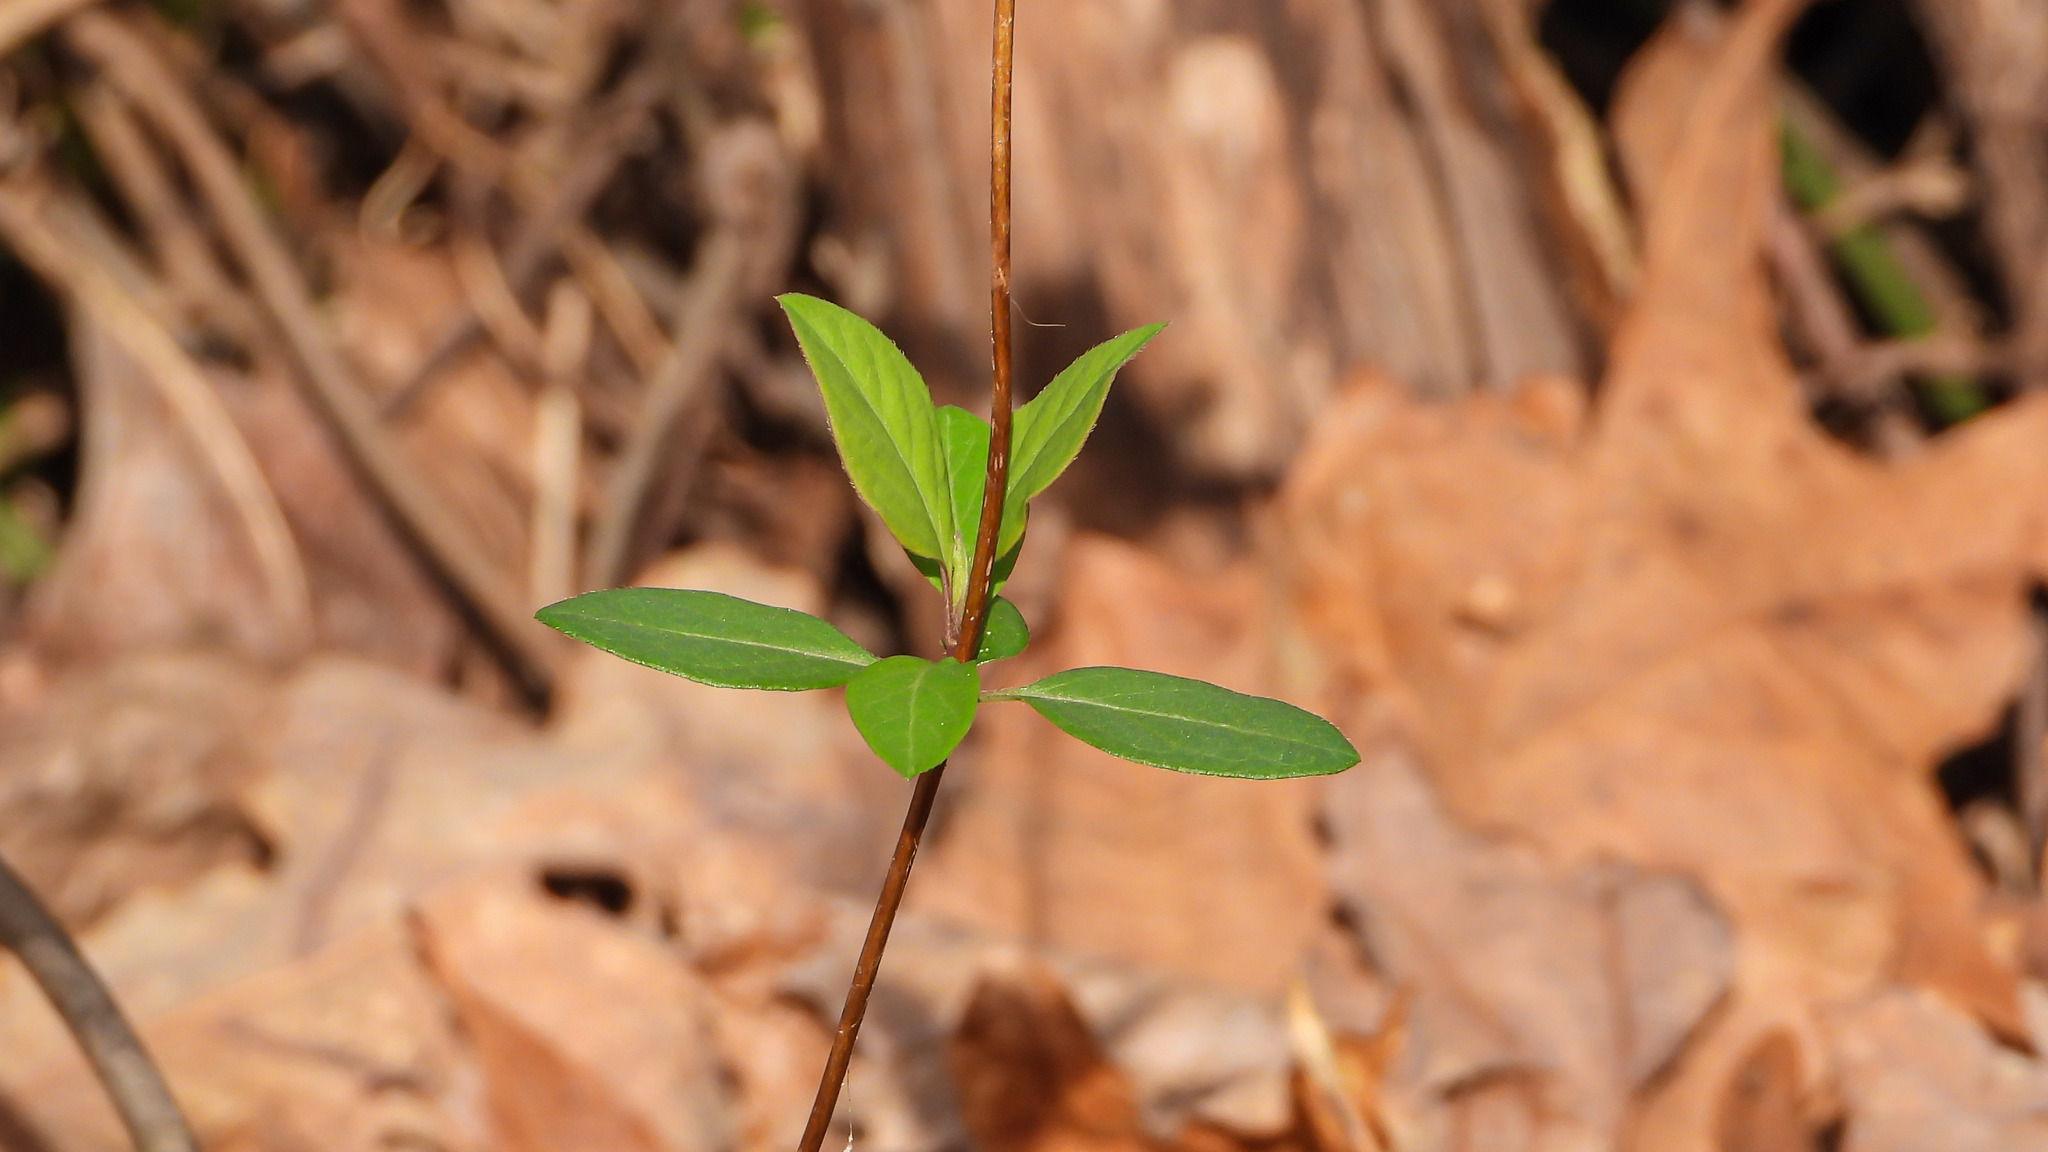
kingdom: Plantae
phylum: Tracheophyta
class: Magnoliopsida
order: Dipsacales
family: Caprifoliaceae
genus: Lonicera
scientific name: Lonicera japonica
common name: Japanese honeysuckle
